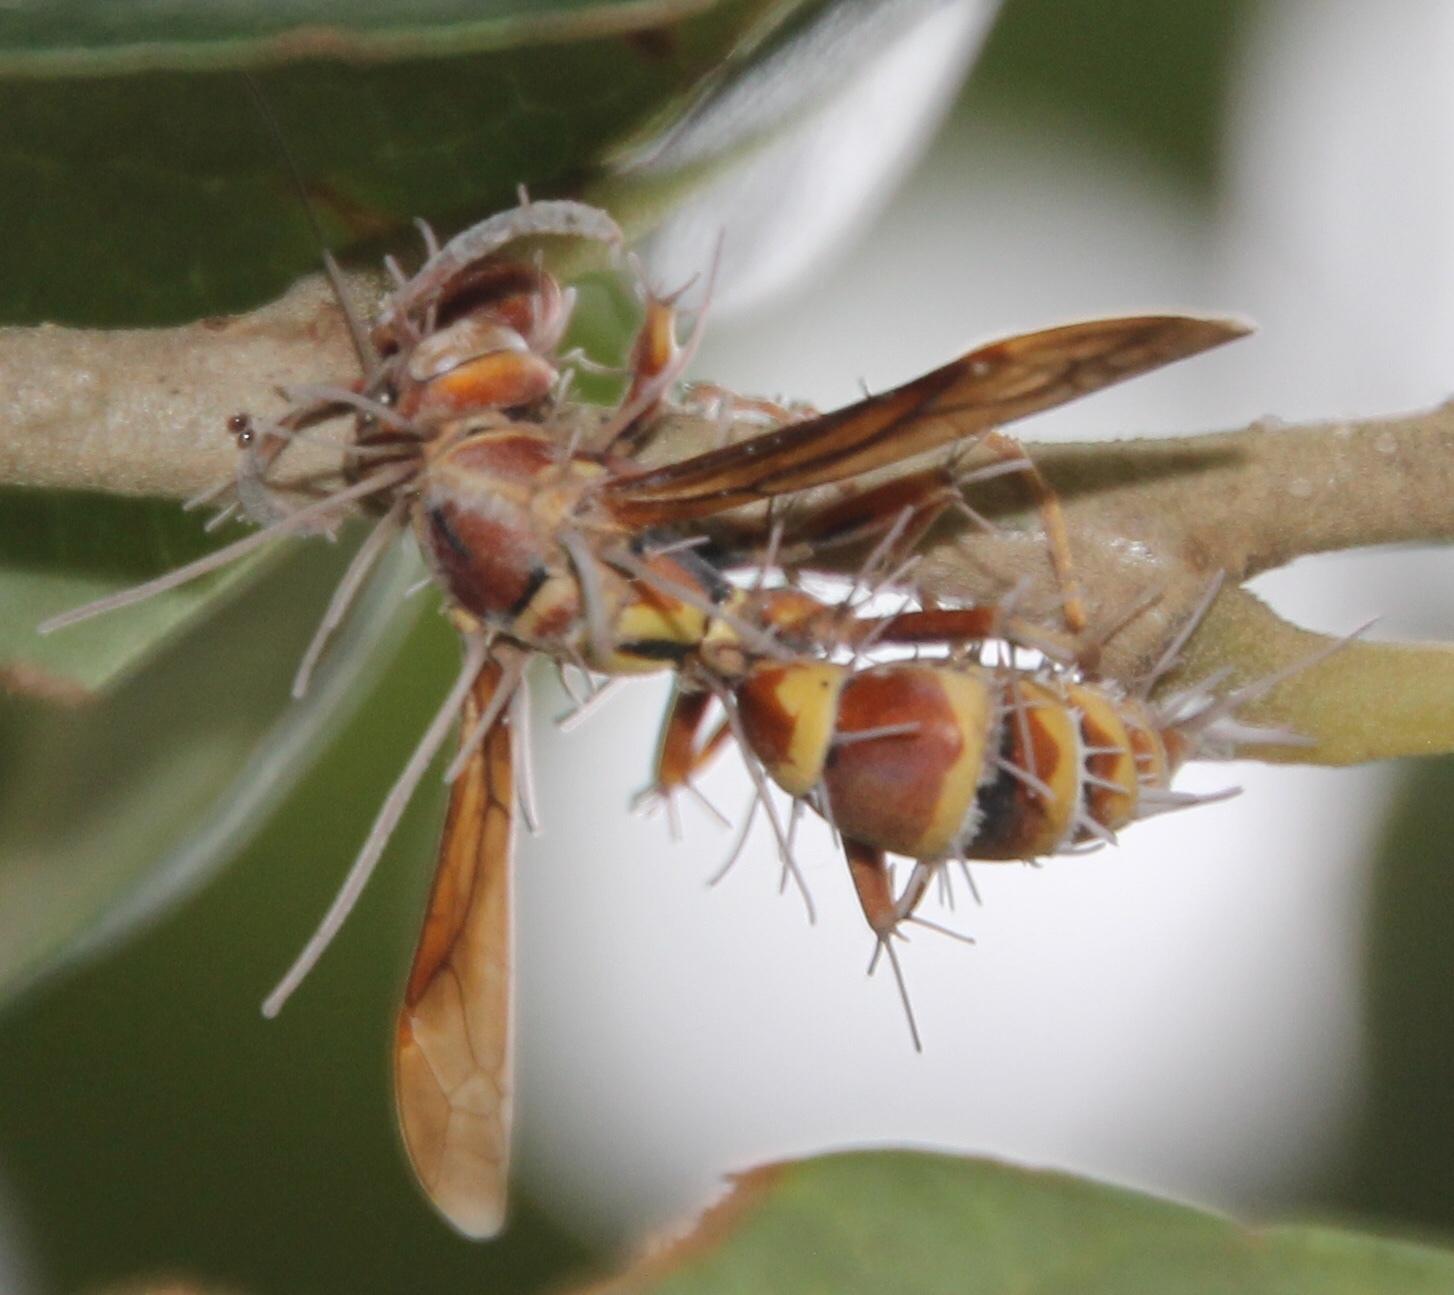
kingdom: Fungi
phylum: Ascomycota
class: Sordariomycetes
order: Hypocreales
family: Ophiocordycipitaceae
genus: Ophiocordyceps
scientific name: Ophiocordyceps humbertii
